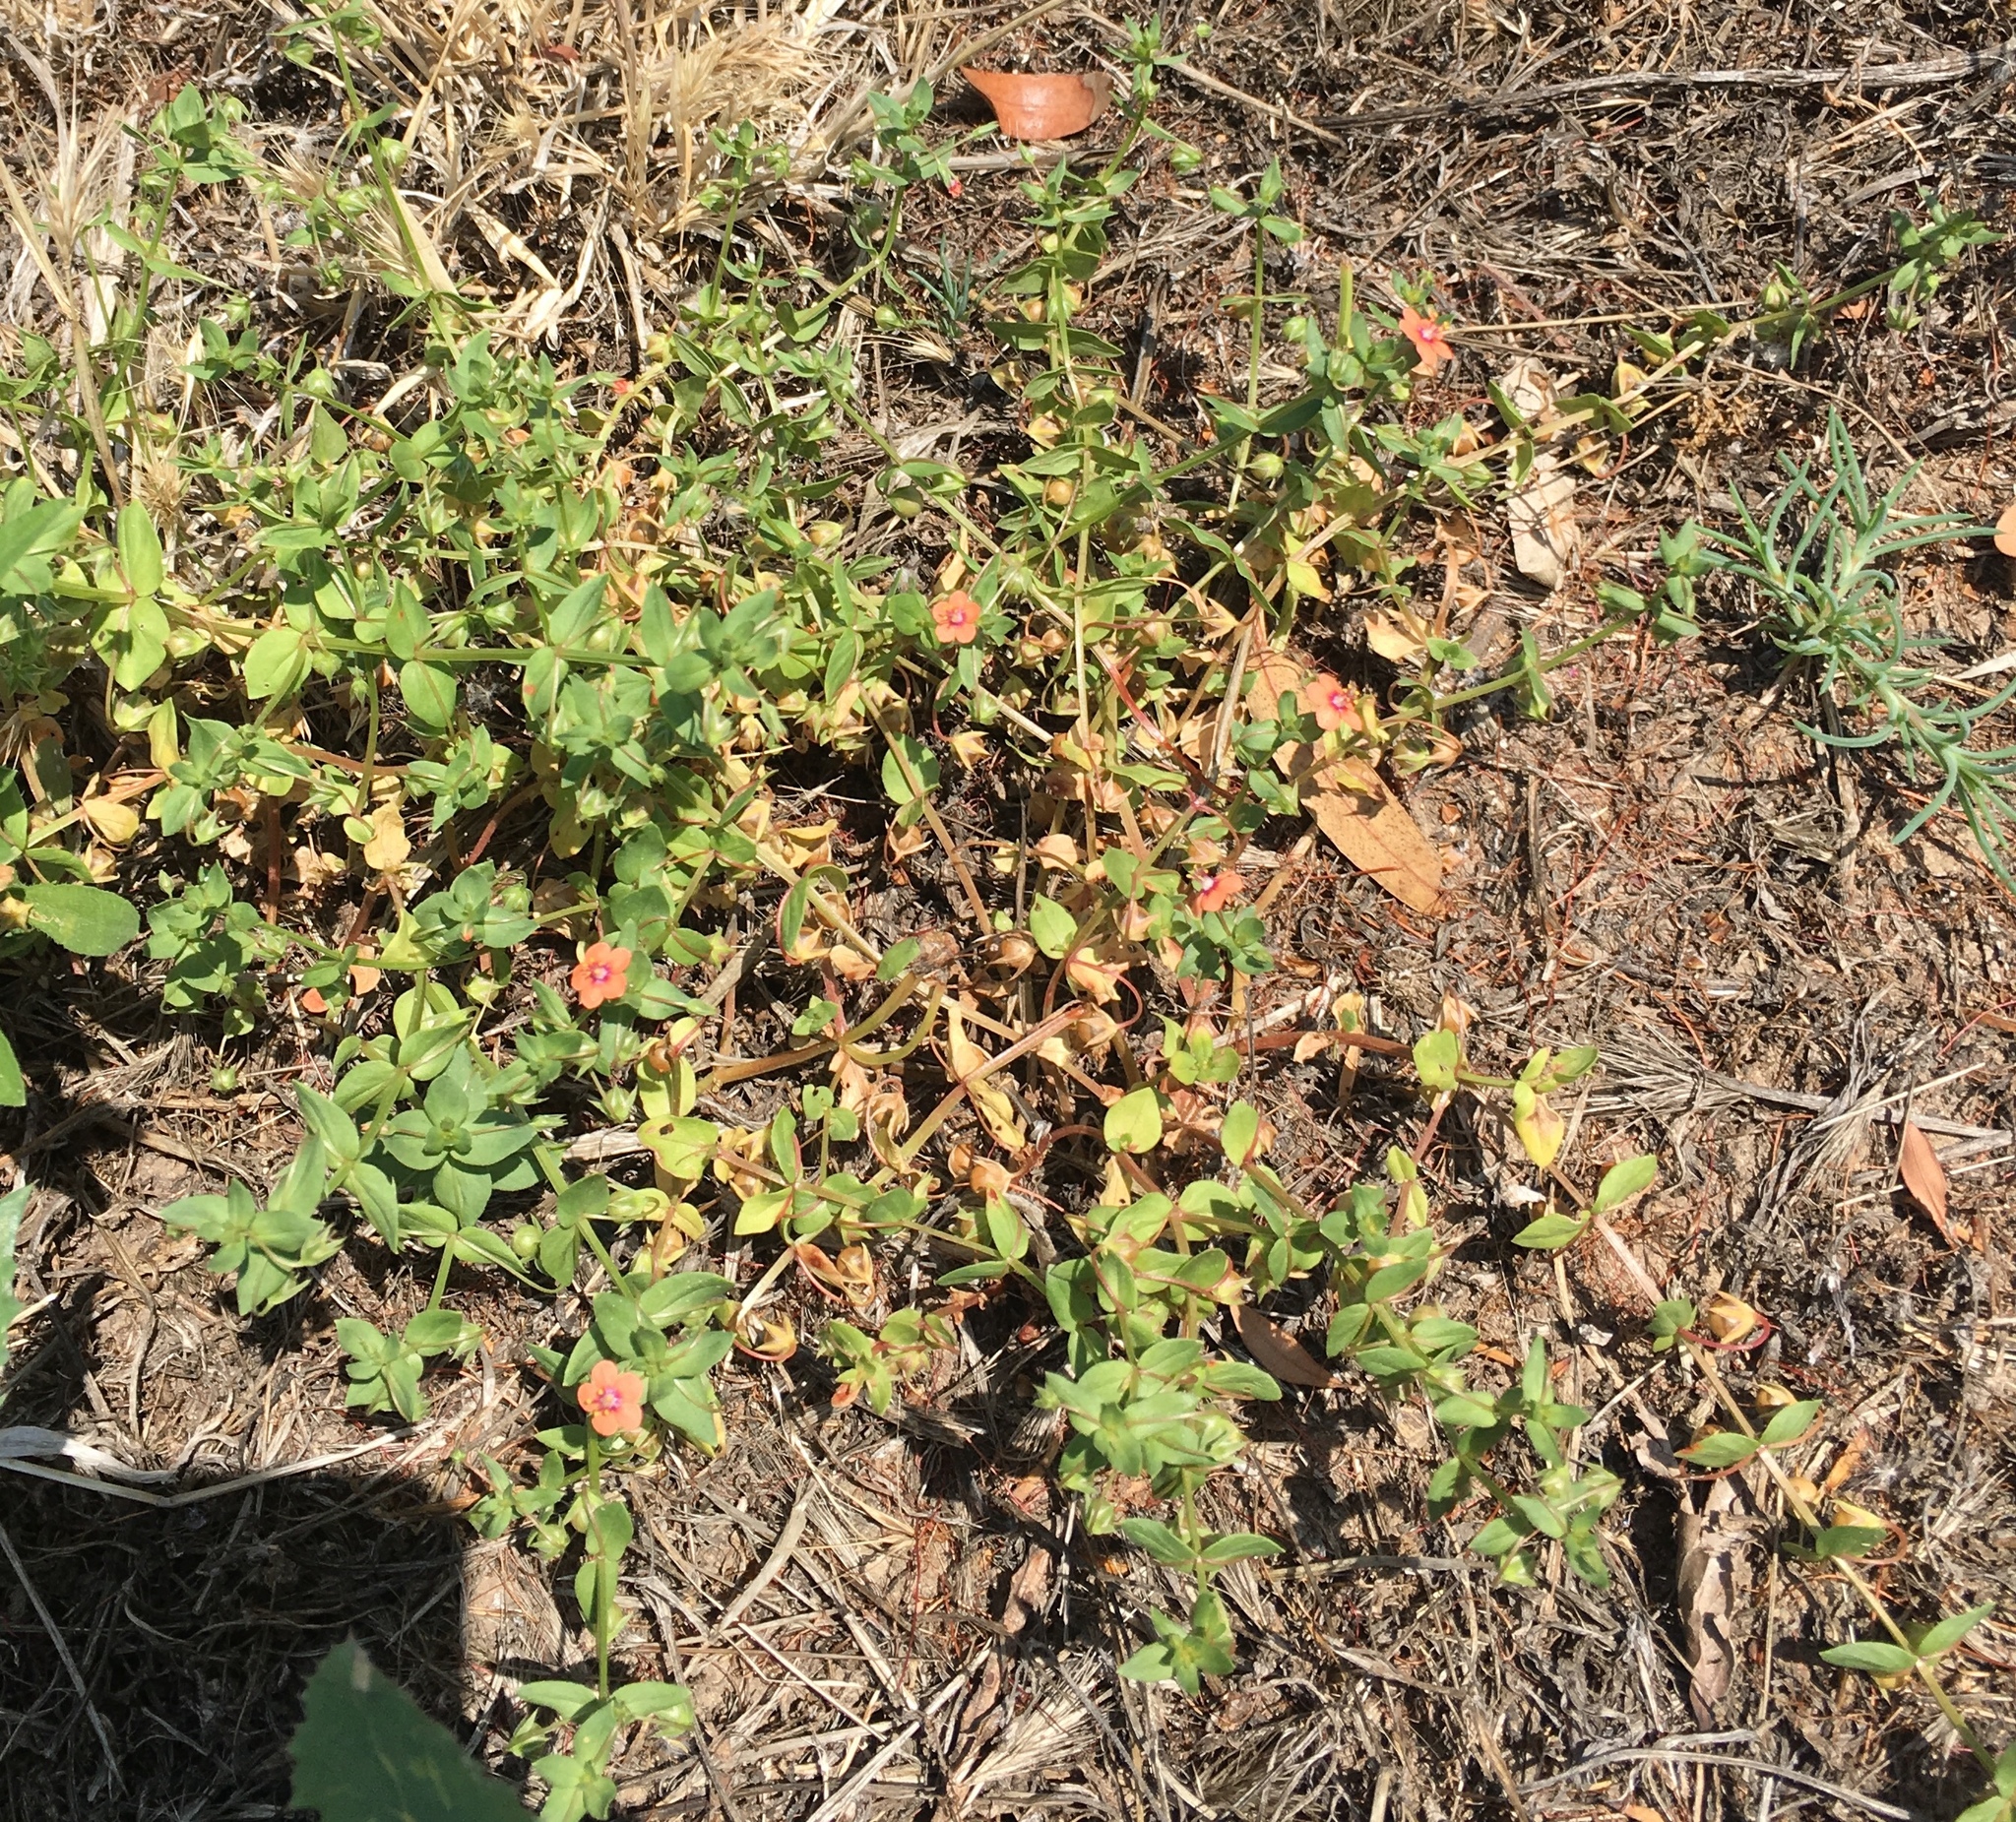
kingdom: Plantae
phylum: Tracheophyta
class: Magnoliopsida
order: Ericales
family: Primulaceae
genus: Lysimachia
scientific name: Lysimachia arvensis
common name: Scarlet pimpernel
